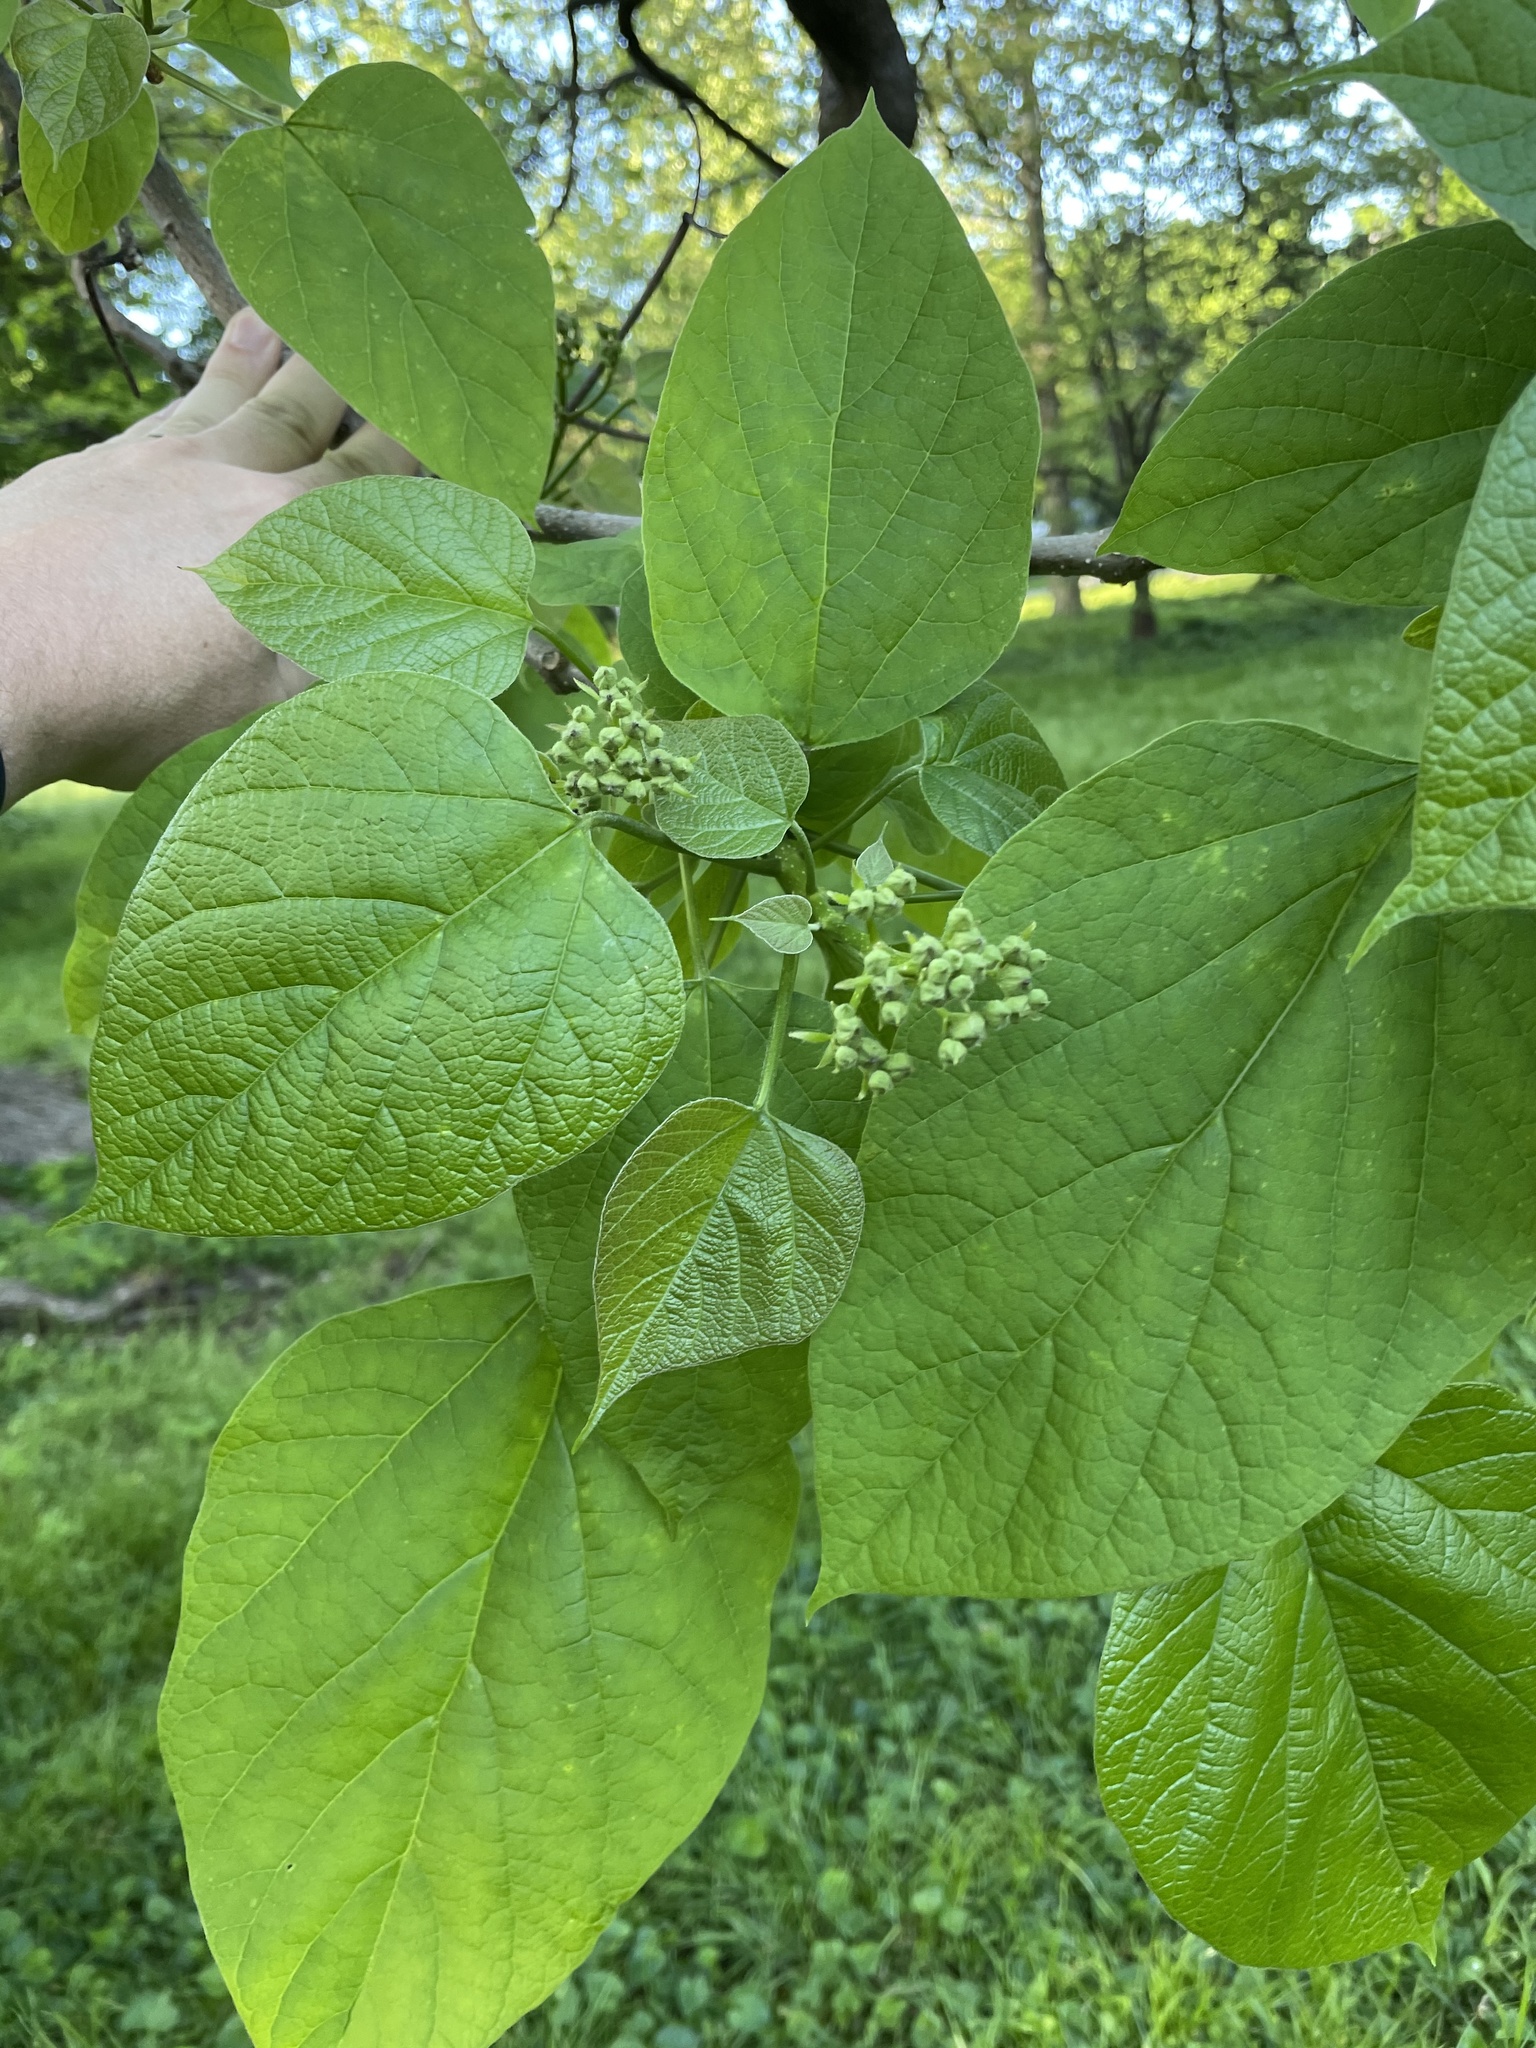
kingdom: Plantae
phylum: Tracheophyta
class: Magnoliopsida
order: Lamiales
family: Bignoniaceae
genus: Catalpa
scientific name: Catalpa speciosa
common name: Northern catalpa
